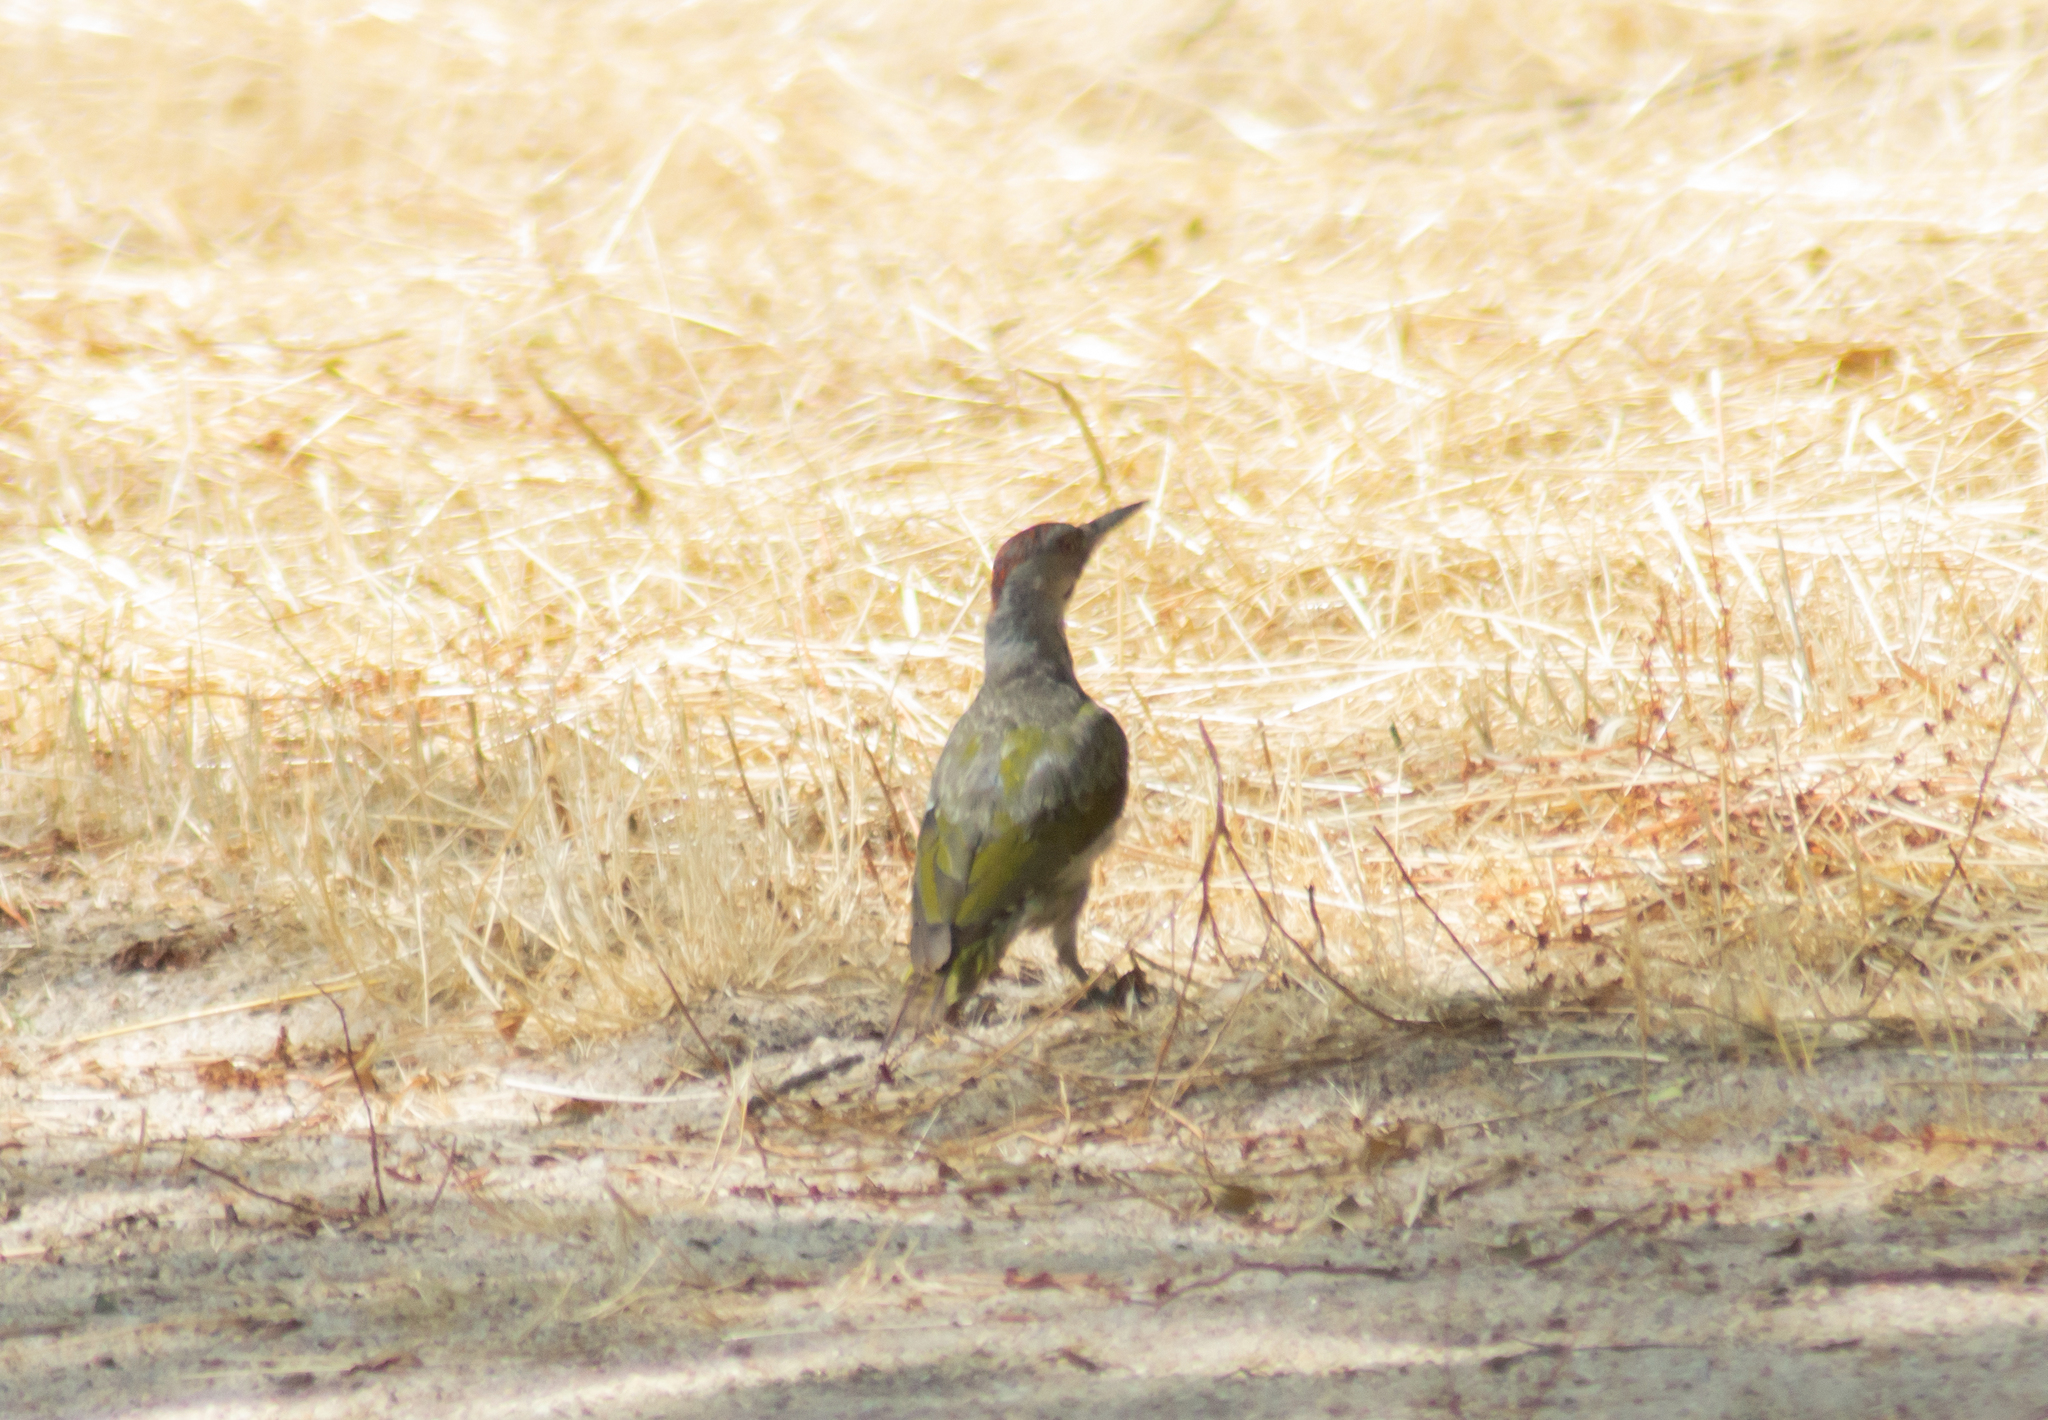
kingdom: Animalia
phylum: Chordata
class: Aves
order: Piciformes
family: Picidae
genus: Picus
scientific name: Picus sharpei
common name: Iberian green woodpecker
